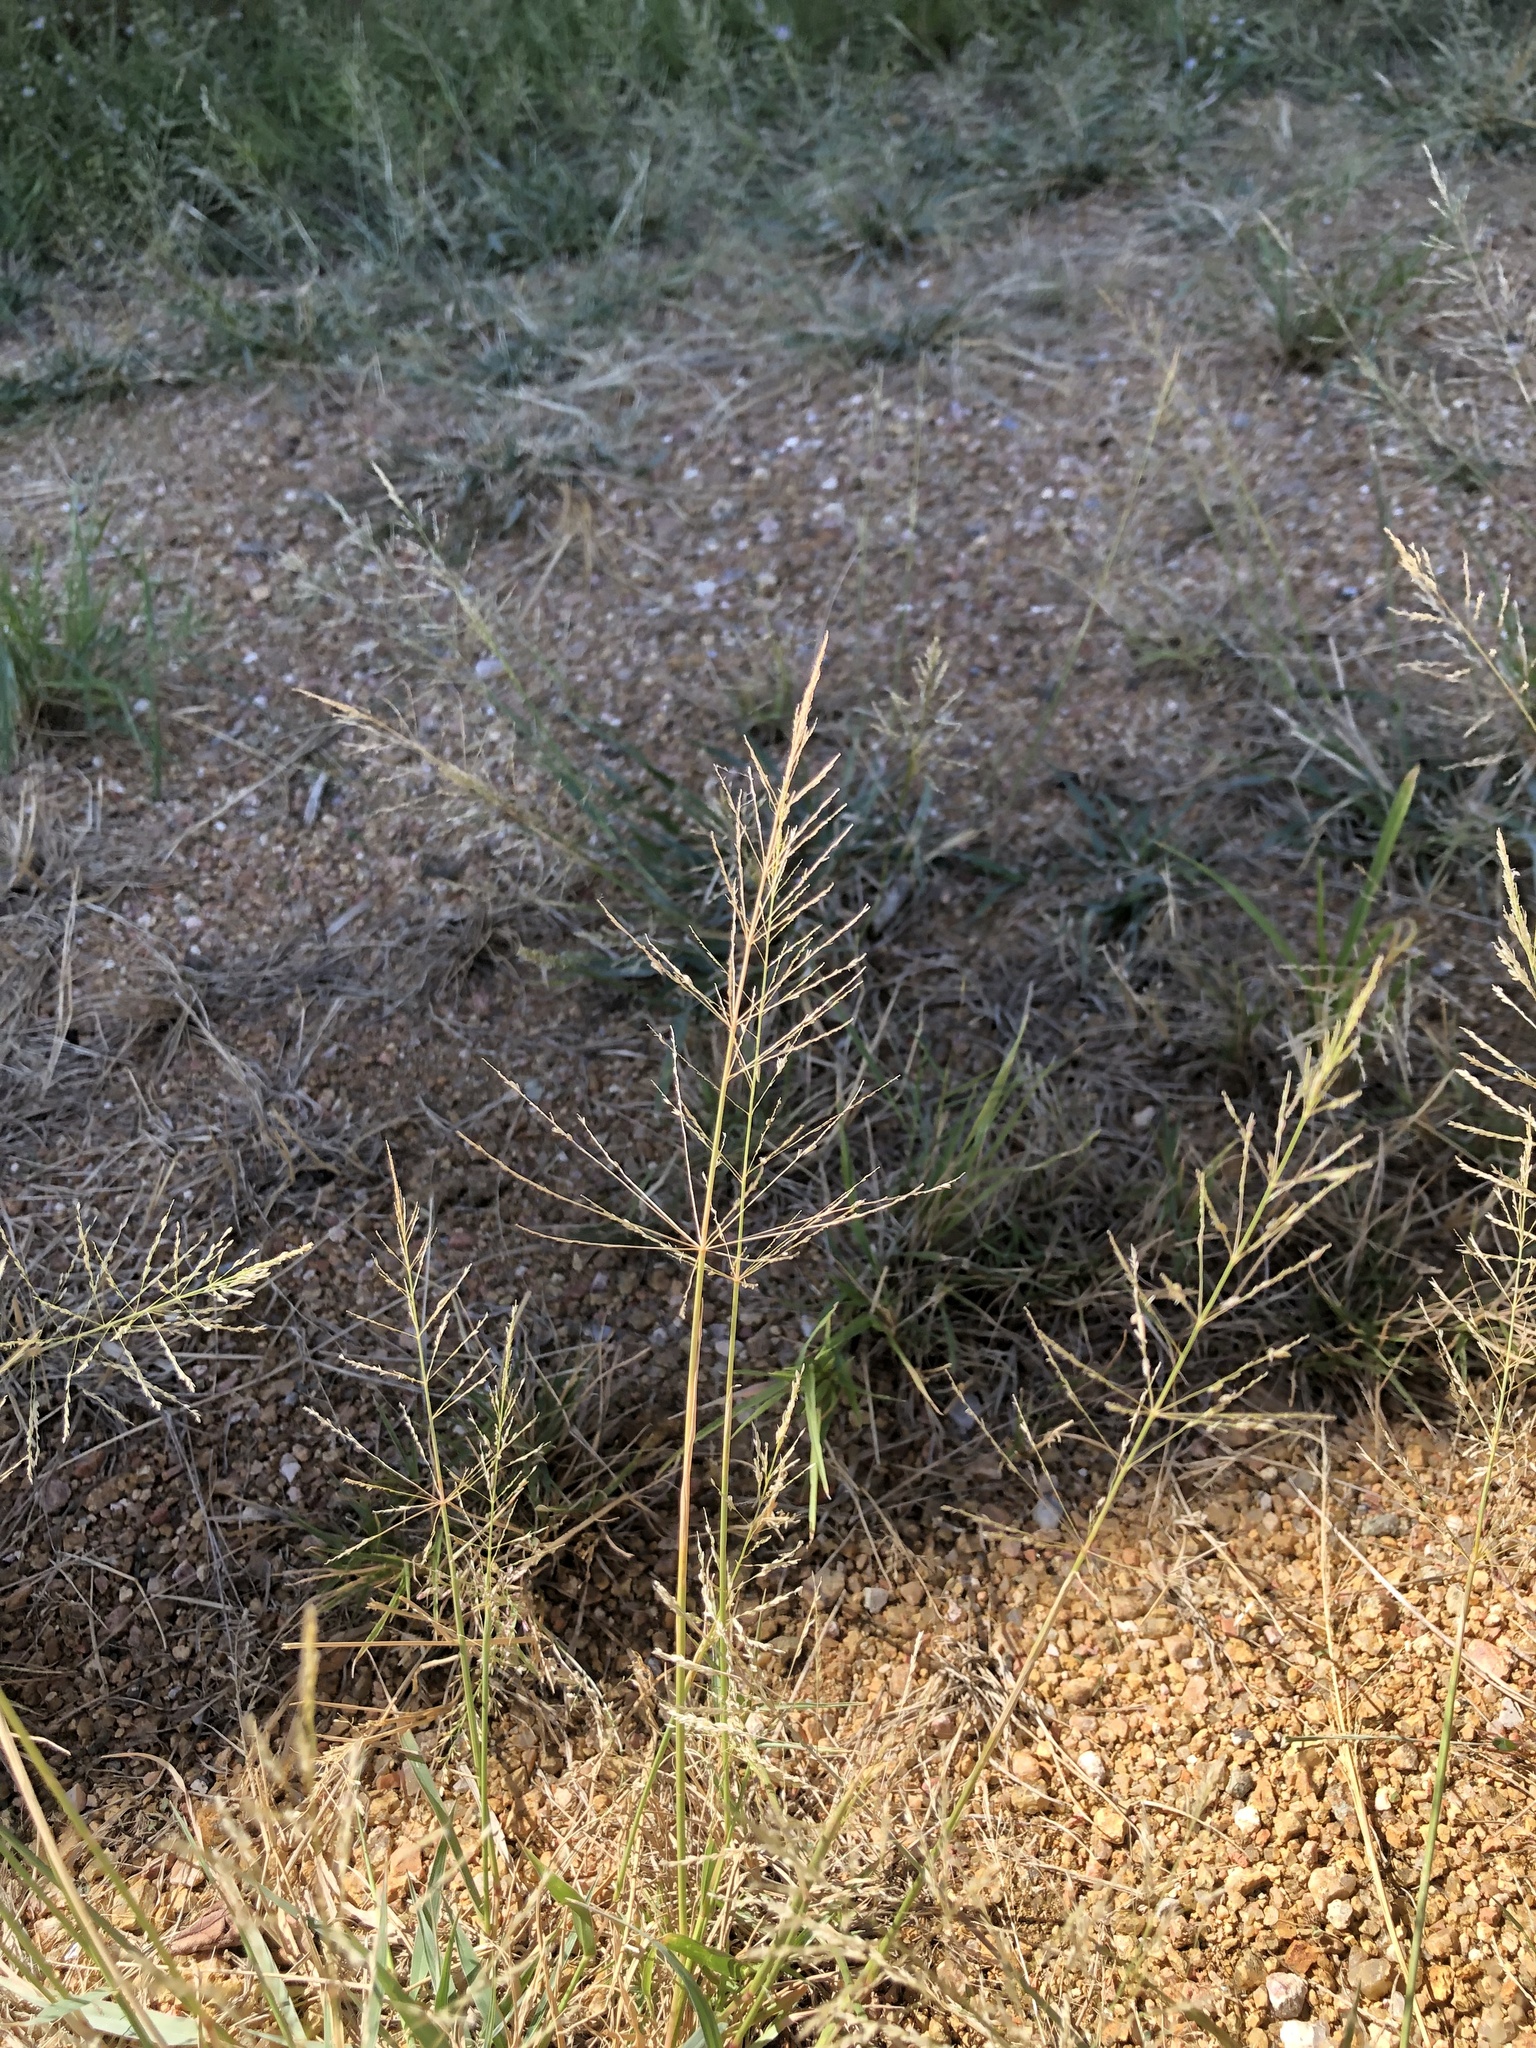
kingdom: Plantae
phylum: Tracheophyta
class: Liliopsida
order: Poales
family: Poaceae
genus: Sporobolus
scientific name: Sporobolus pyramidatus
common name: Whorled dropseed
